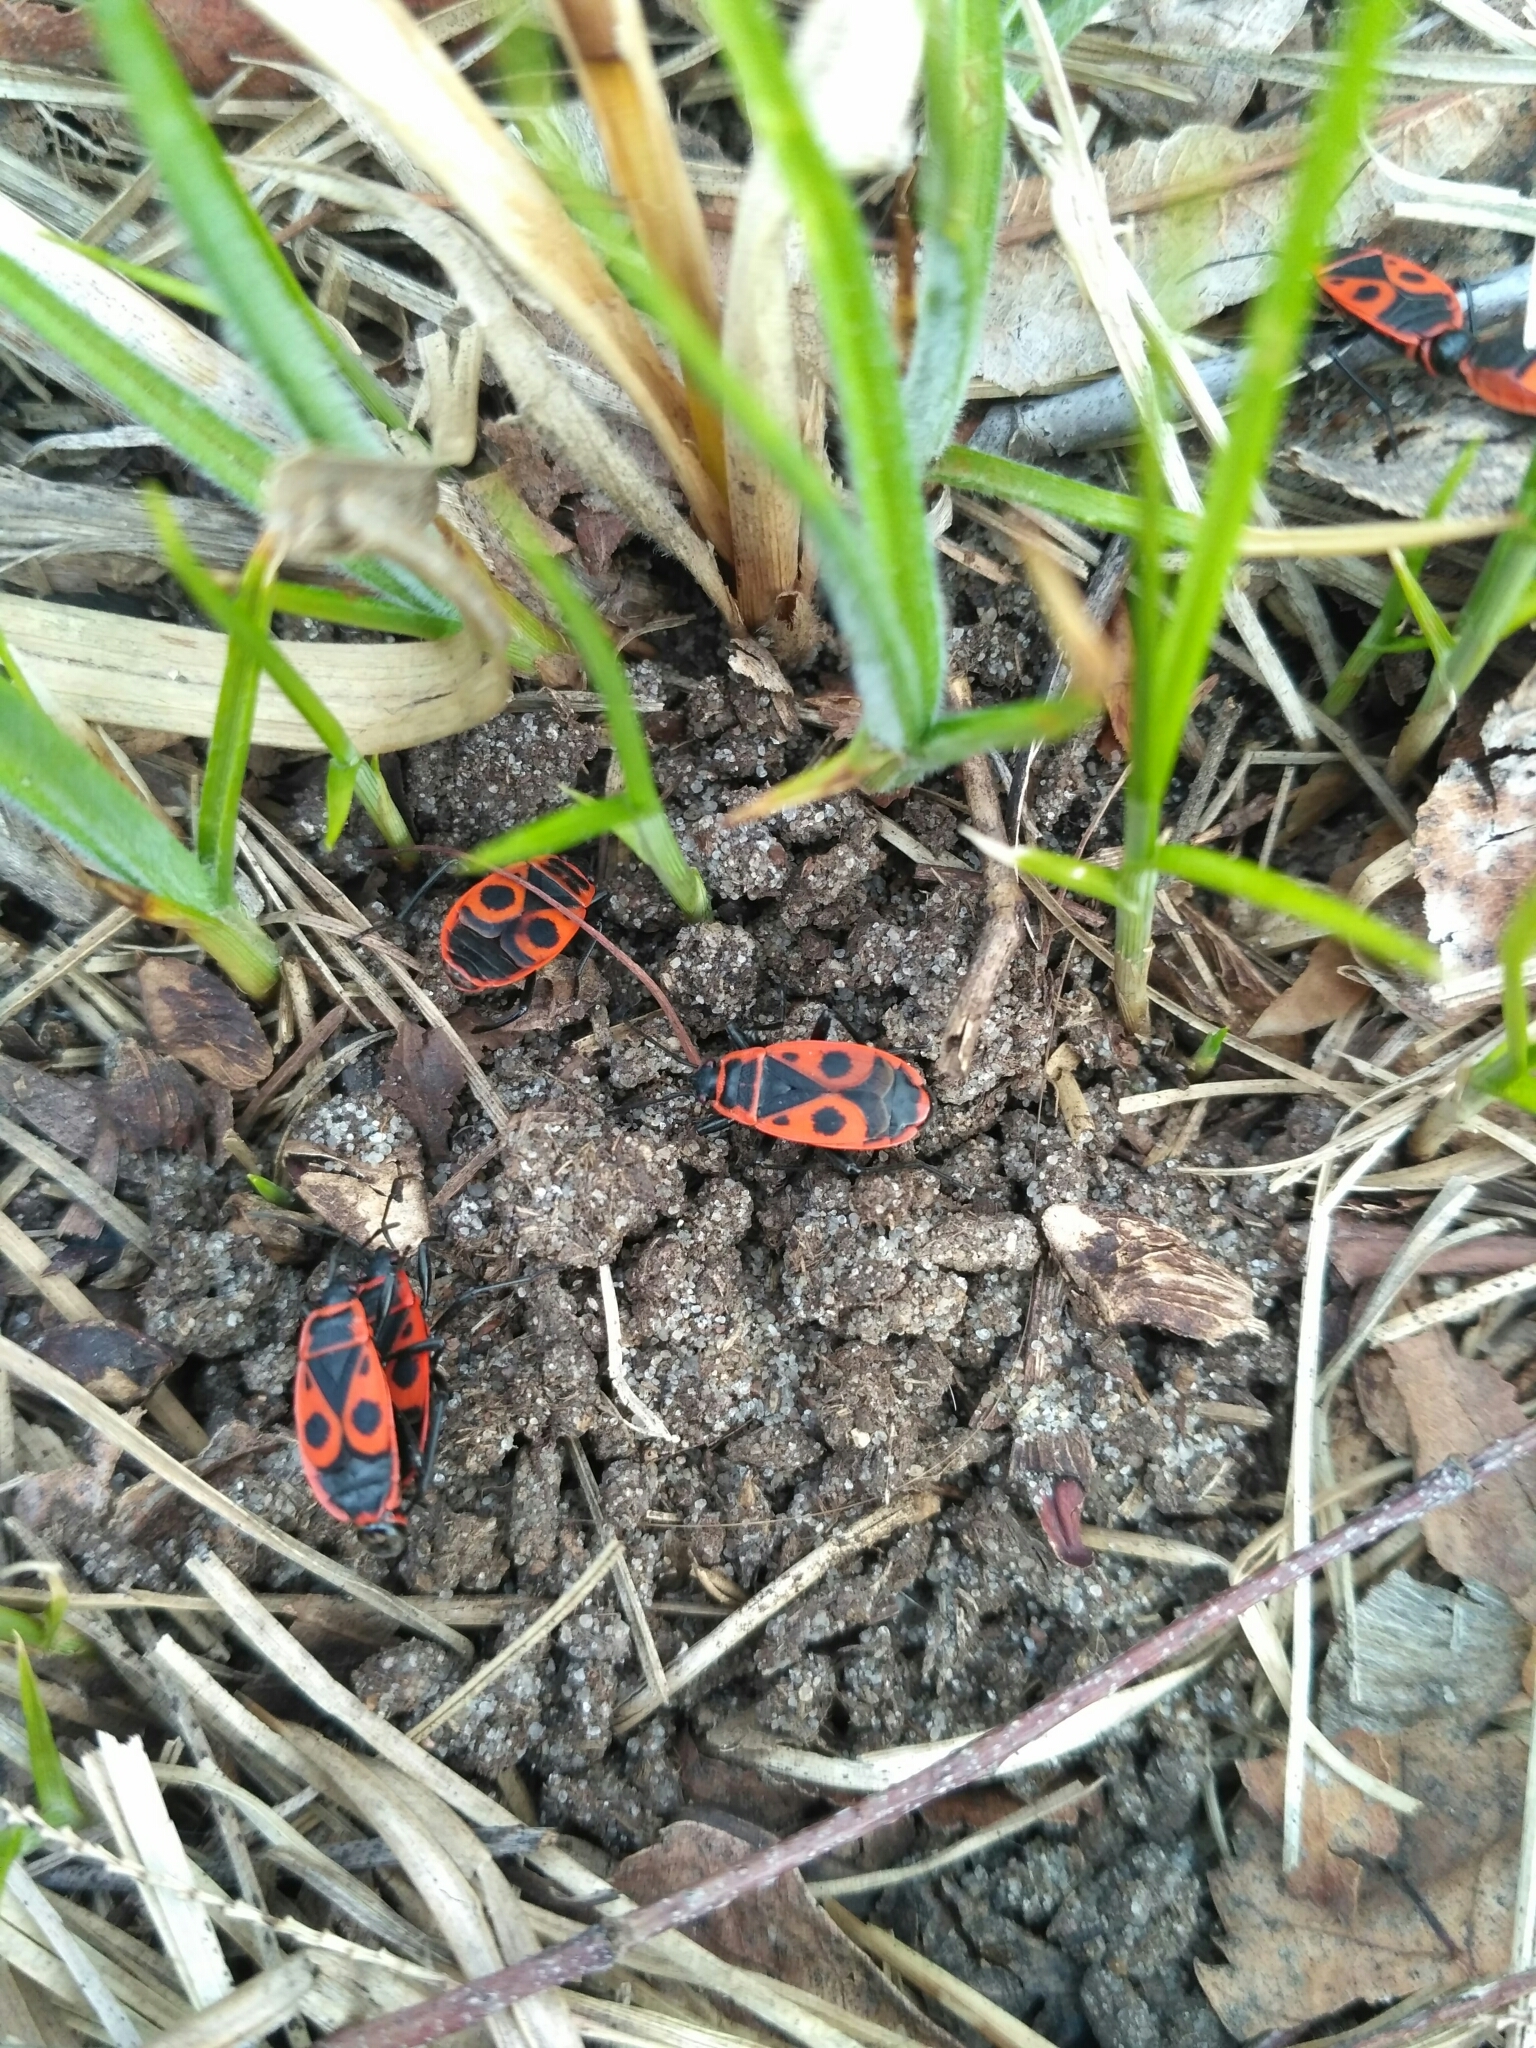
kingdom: Animalia
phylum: Arthropoda
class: Insecta
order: Hemiptera
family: Pyrrhocoridae
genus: Pyrrhocoris
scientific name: Pyrrhocoris apterus
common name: Firebug
